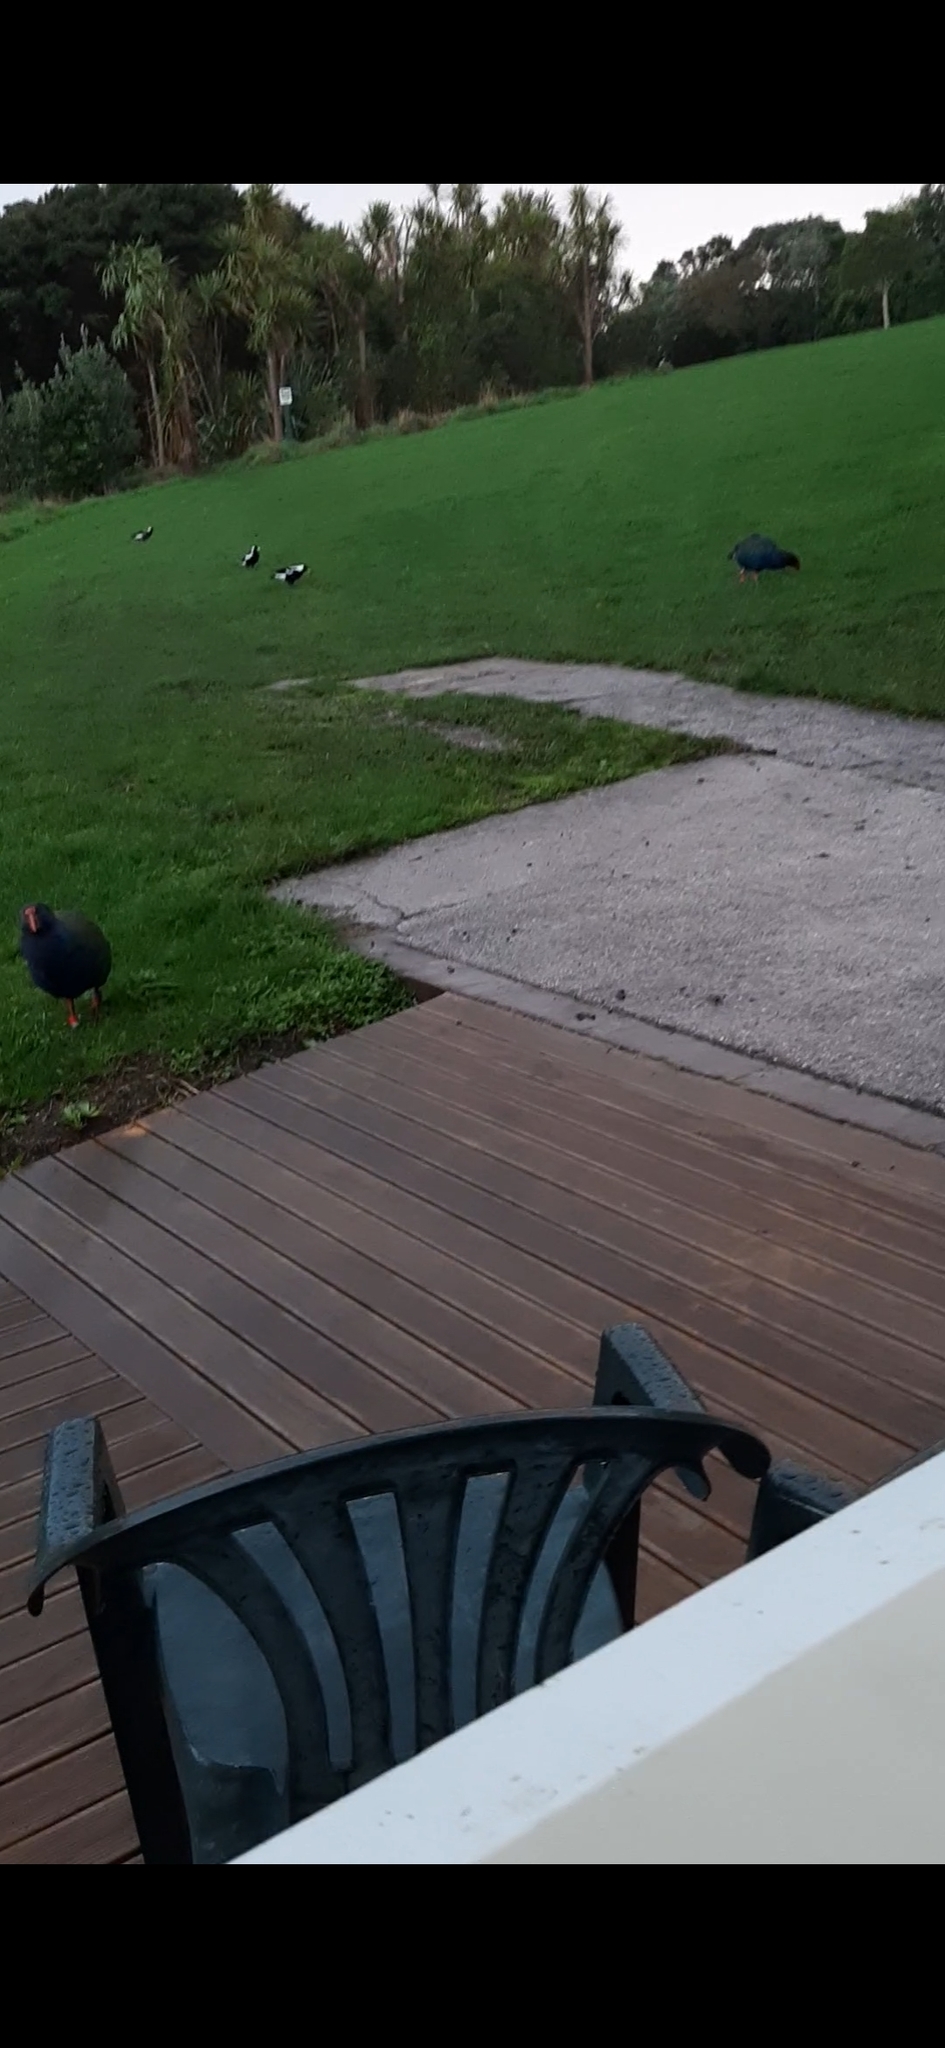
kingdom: Animalia
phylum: Chordata
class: Aves
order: Passeriformes
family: Cracticidae
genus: Gymnorhina
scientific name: Gymnorhina tibicen
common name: Australian magpie
